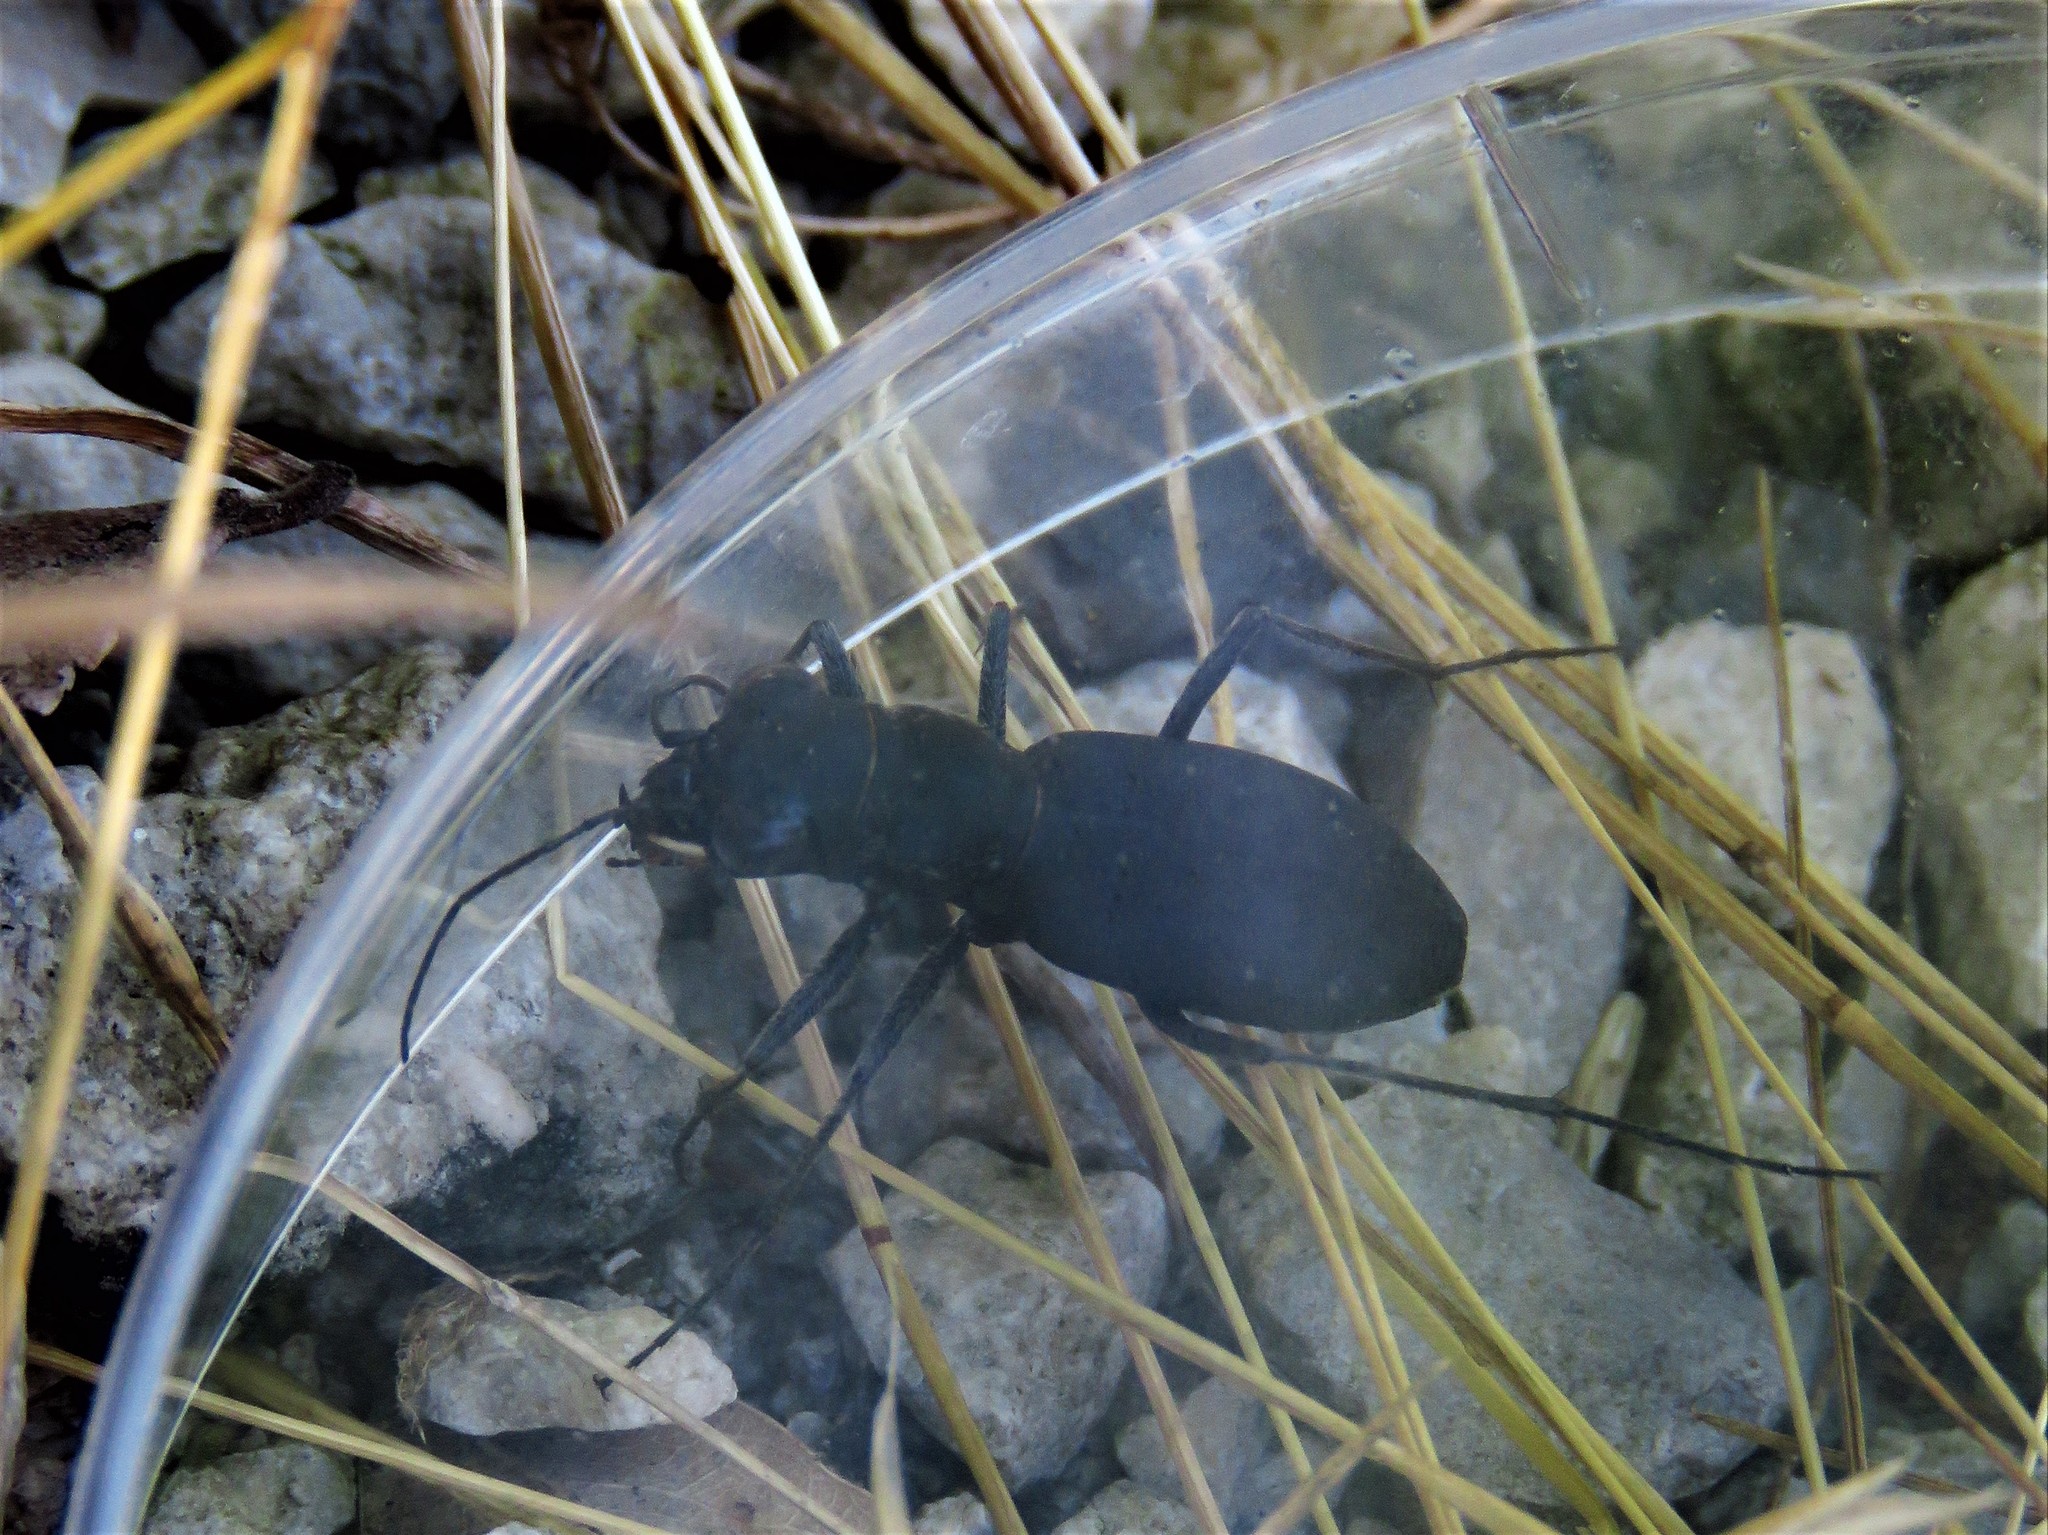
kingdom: Animalia
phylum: Arthropoda
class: Insecta
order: Coleoptera
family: Carabidae
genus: Dromochorus
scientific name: Dromochorus belfragei
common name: Loamy-ground dromo tiger beetle
